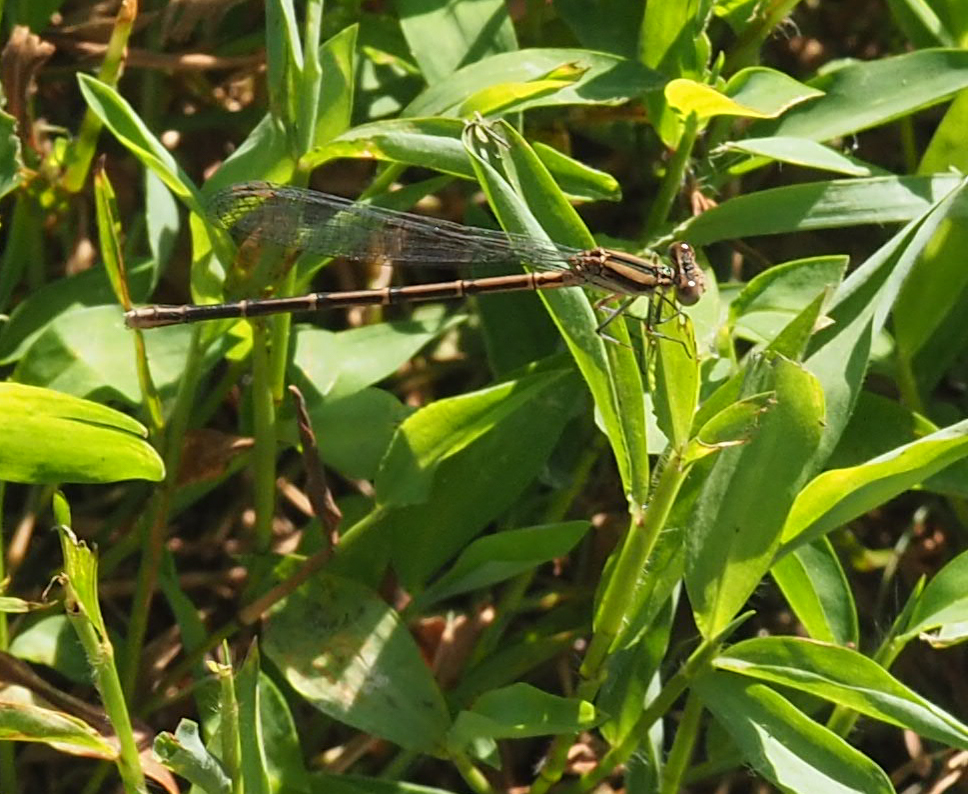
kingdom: Animalia
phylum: Arthropoda
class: Insecta
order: Odonata
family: Coenagrionidae
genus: Argia
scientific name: Argia fumipennis
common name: Variable dancer
